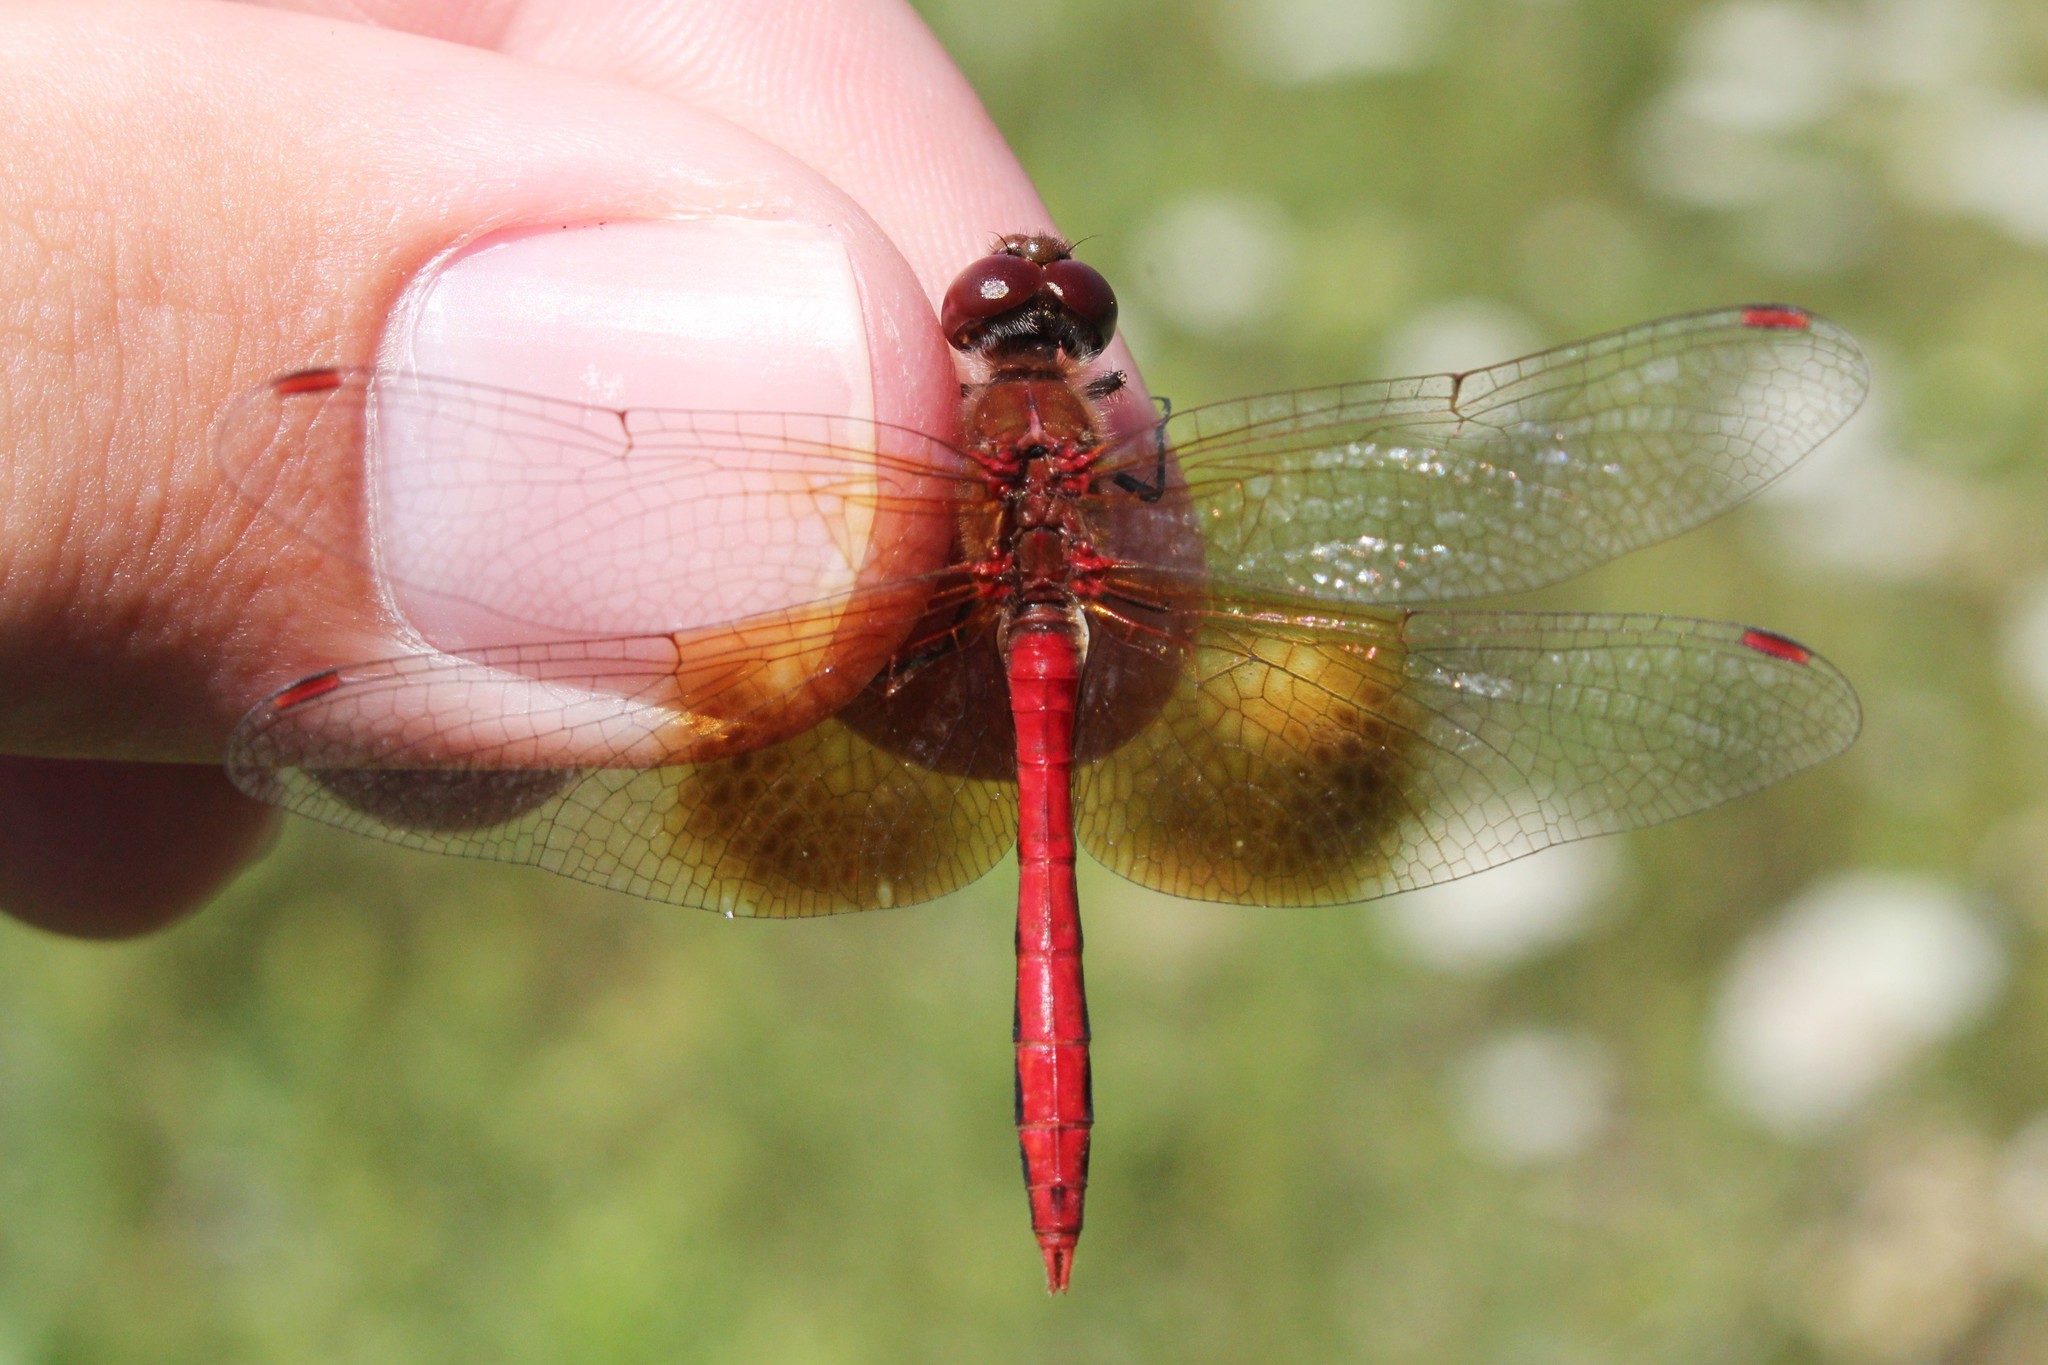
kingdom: Animalia
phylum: Arthropoda
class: Insecta
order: Odonata
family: Libellulidae
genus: Sympetrum
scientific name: Sympetrum semicinctum
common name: Band-winged meadowhawk
